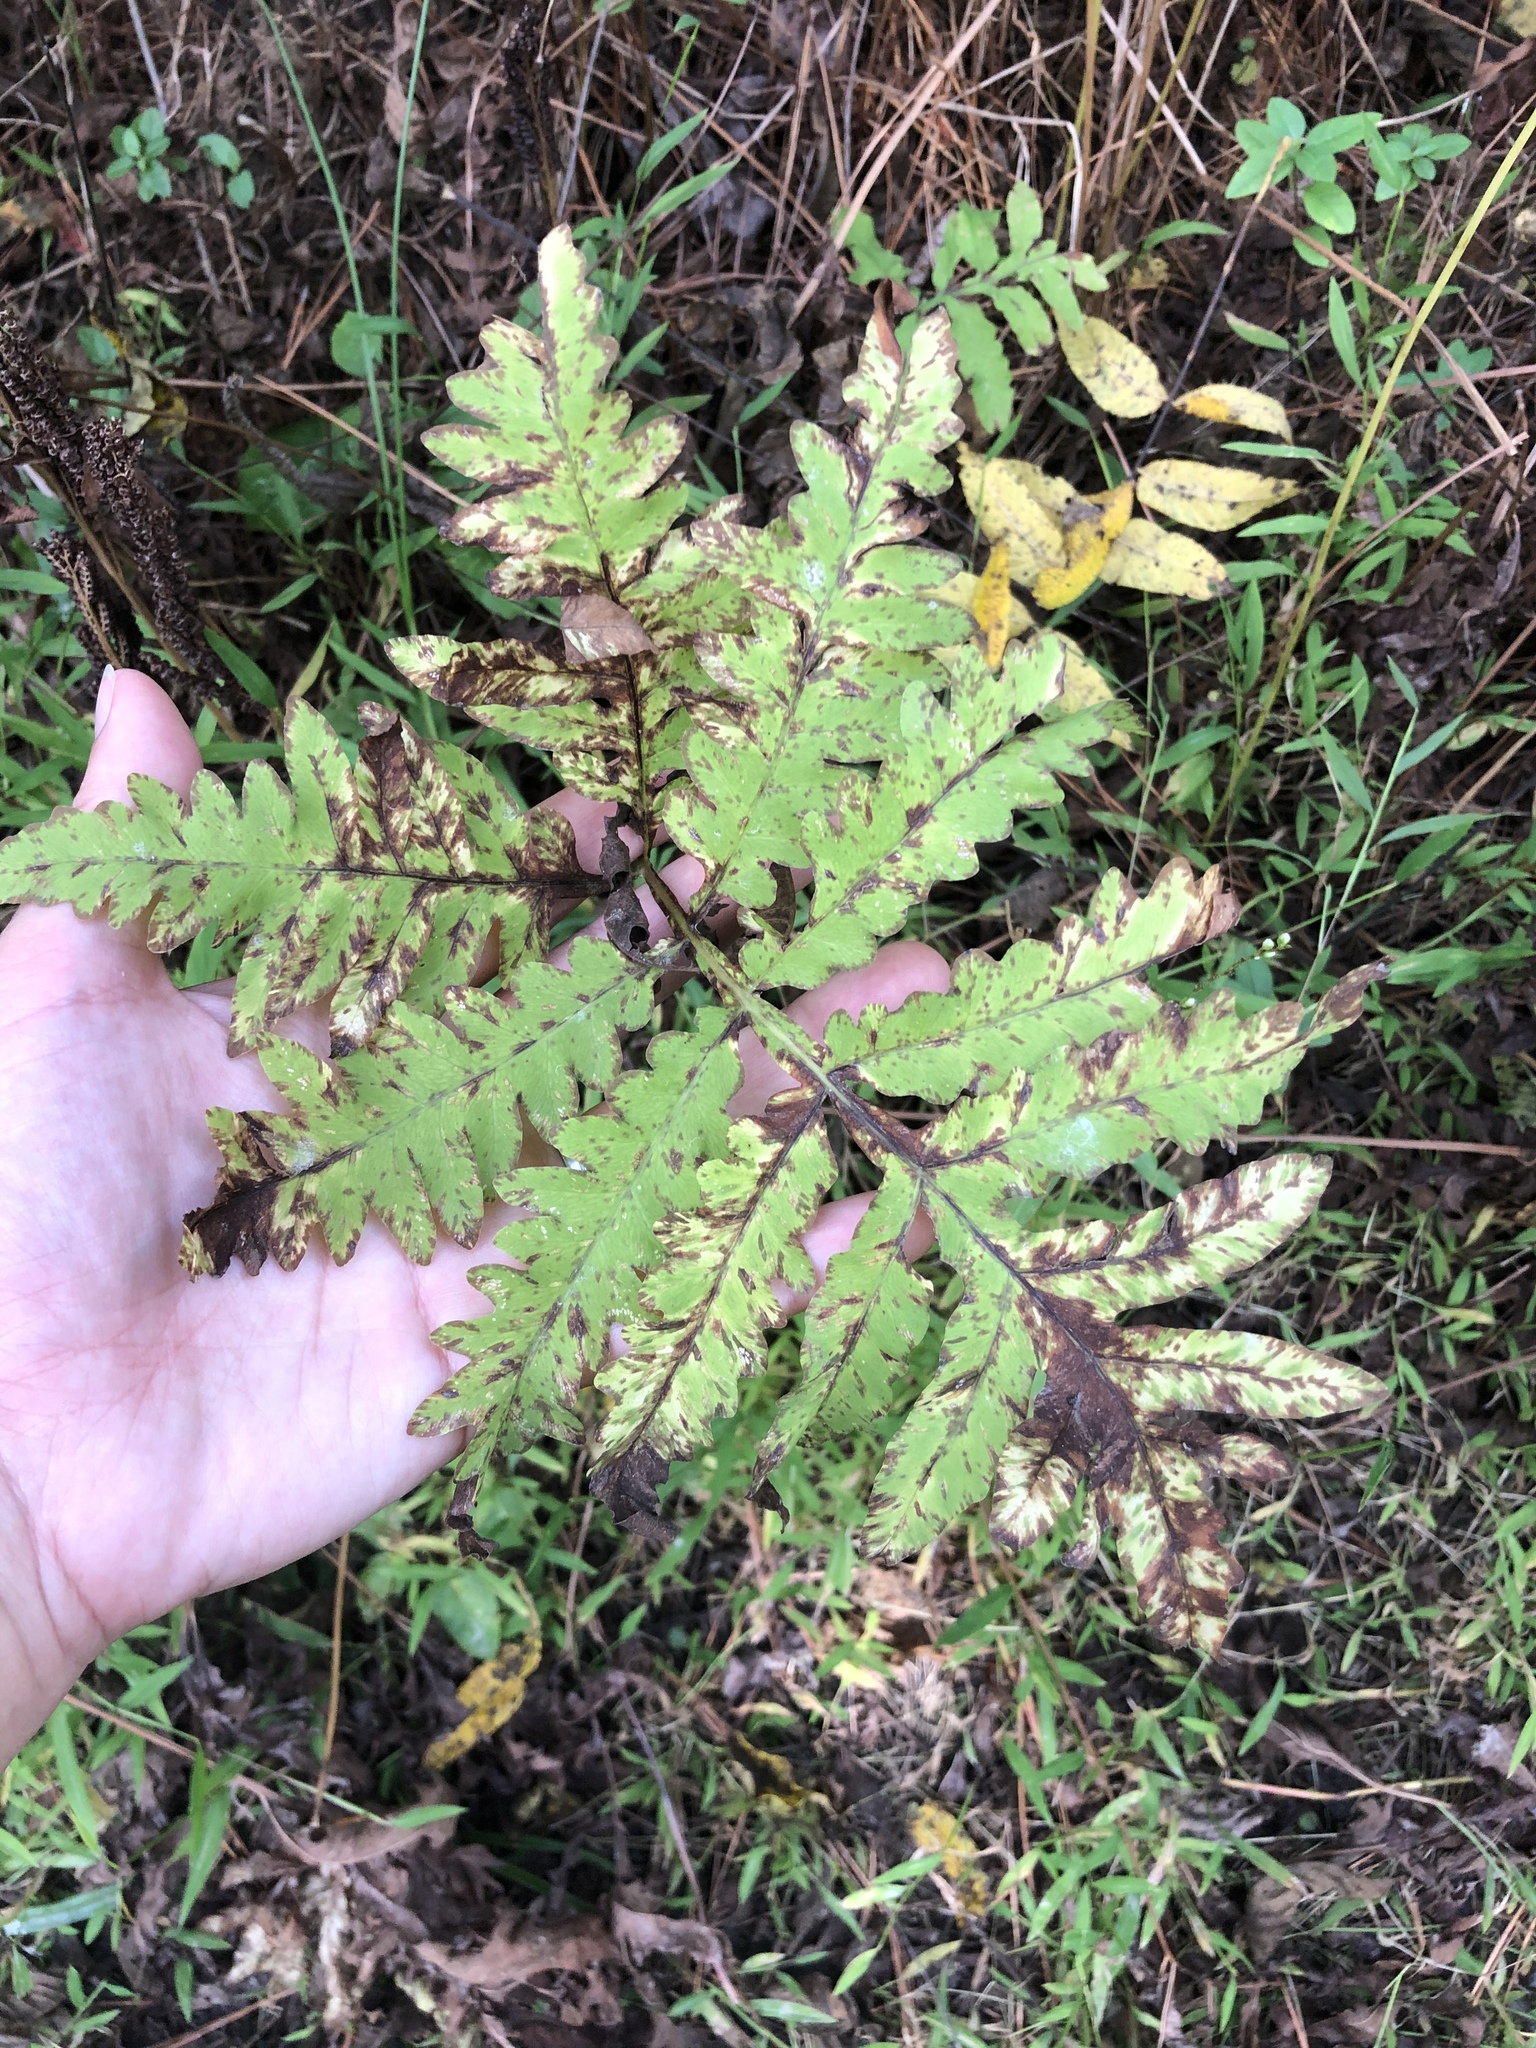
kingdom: Plantae
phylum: Tracheophyta
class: Polypodiopsida
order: Polypodiales
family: Onocleaceae
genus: Onoclea
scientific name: Onoclea sensibilis
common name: Sensitive fern
